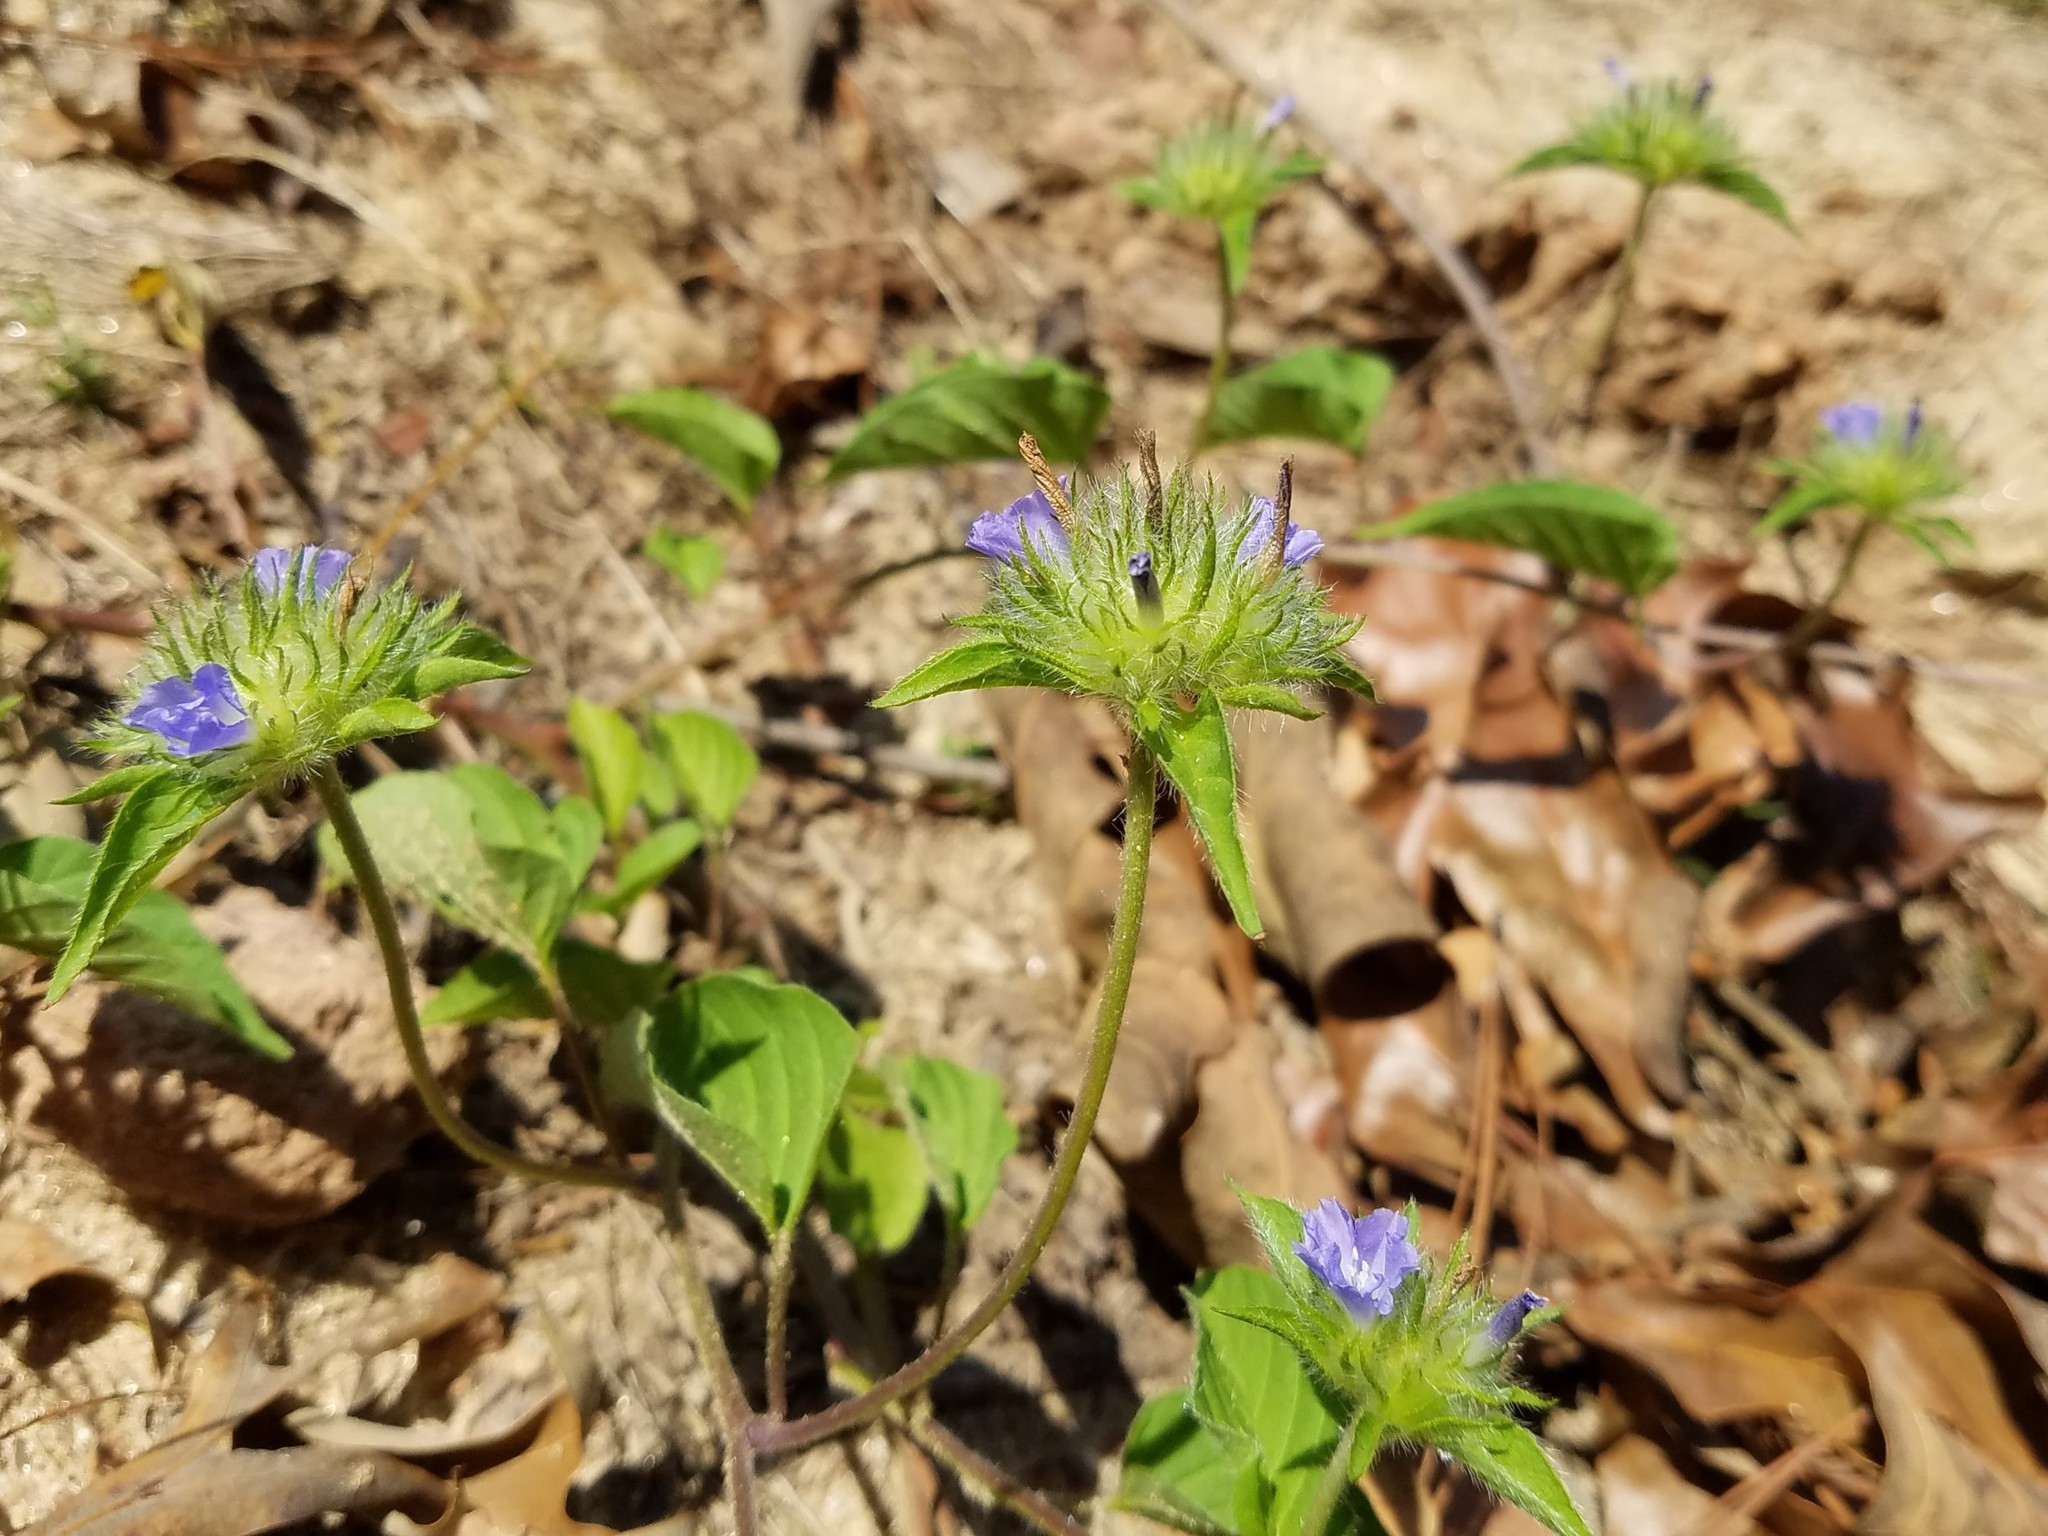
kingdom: Plantae
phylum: Tracheophyta
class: Magnoliopsida
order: Solanales
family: Convolvulaceae
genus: Jacquemontia
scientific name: Jacquemontia tamnifolia
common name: Hairy clustervine
